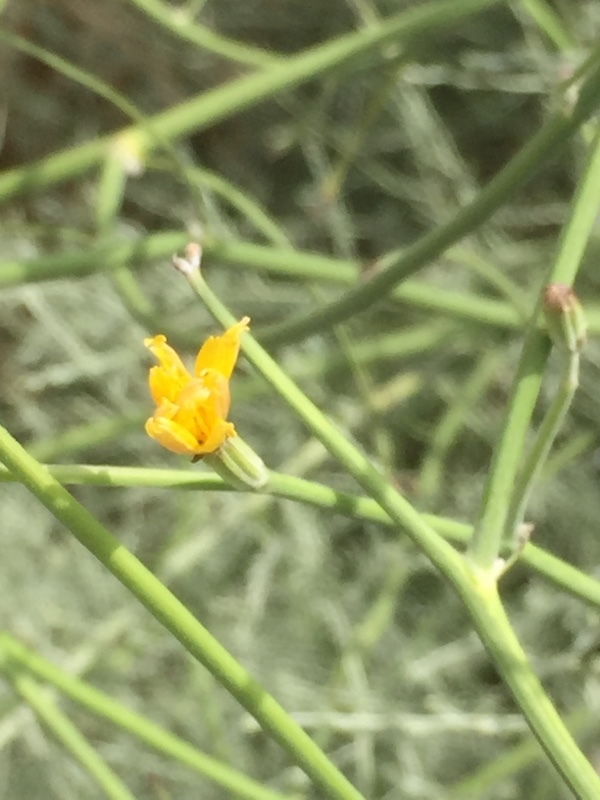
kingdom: Plantae
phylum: Tracheophyta
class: Magnoliopsida
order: Asterales
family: Asteraceae
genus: Chondrilla
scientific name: Chondrilla juncea
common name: Skeleton weed
